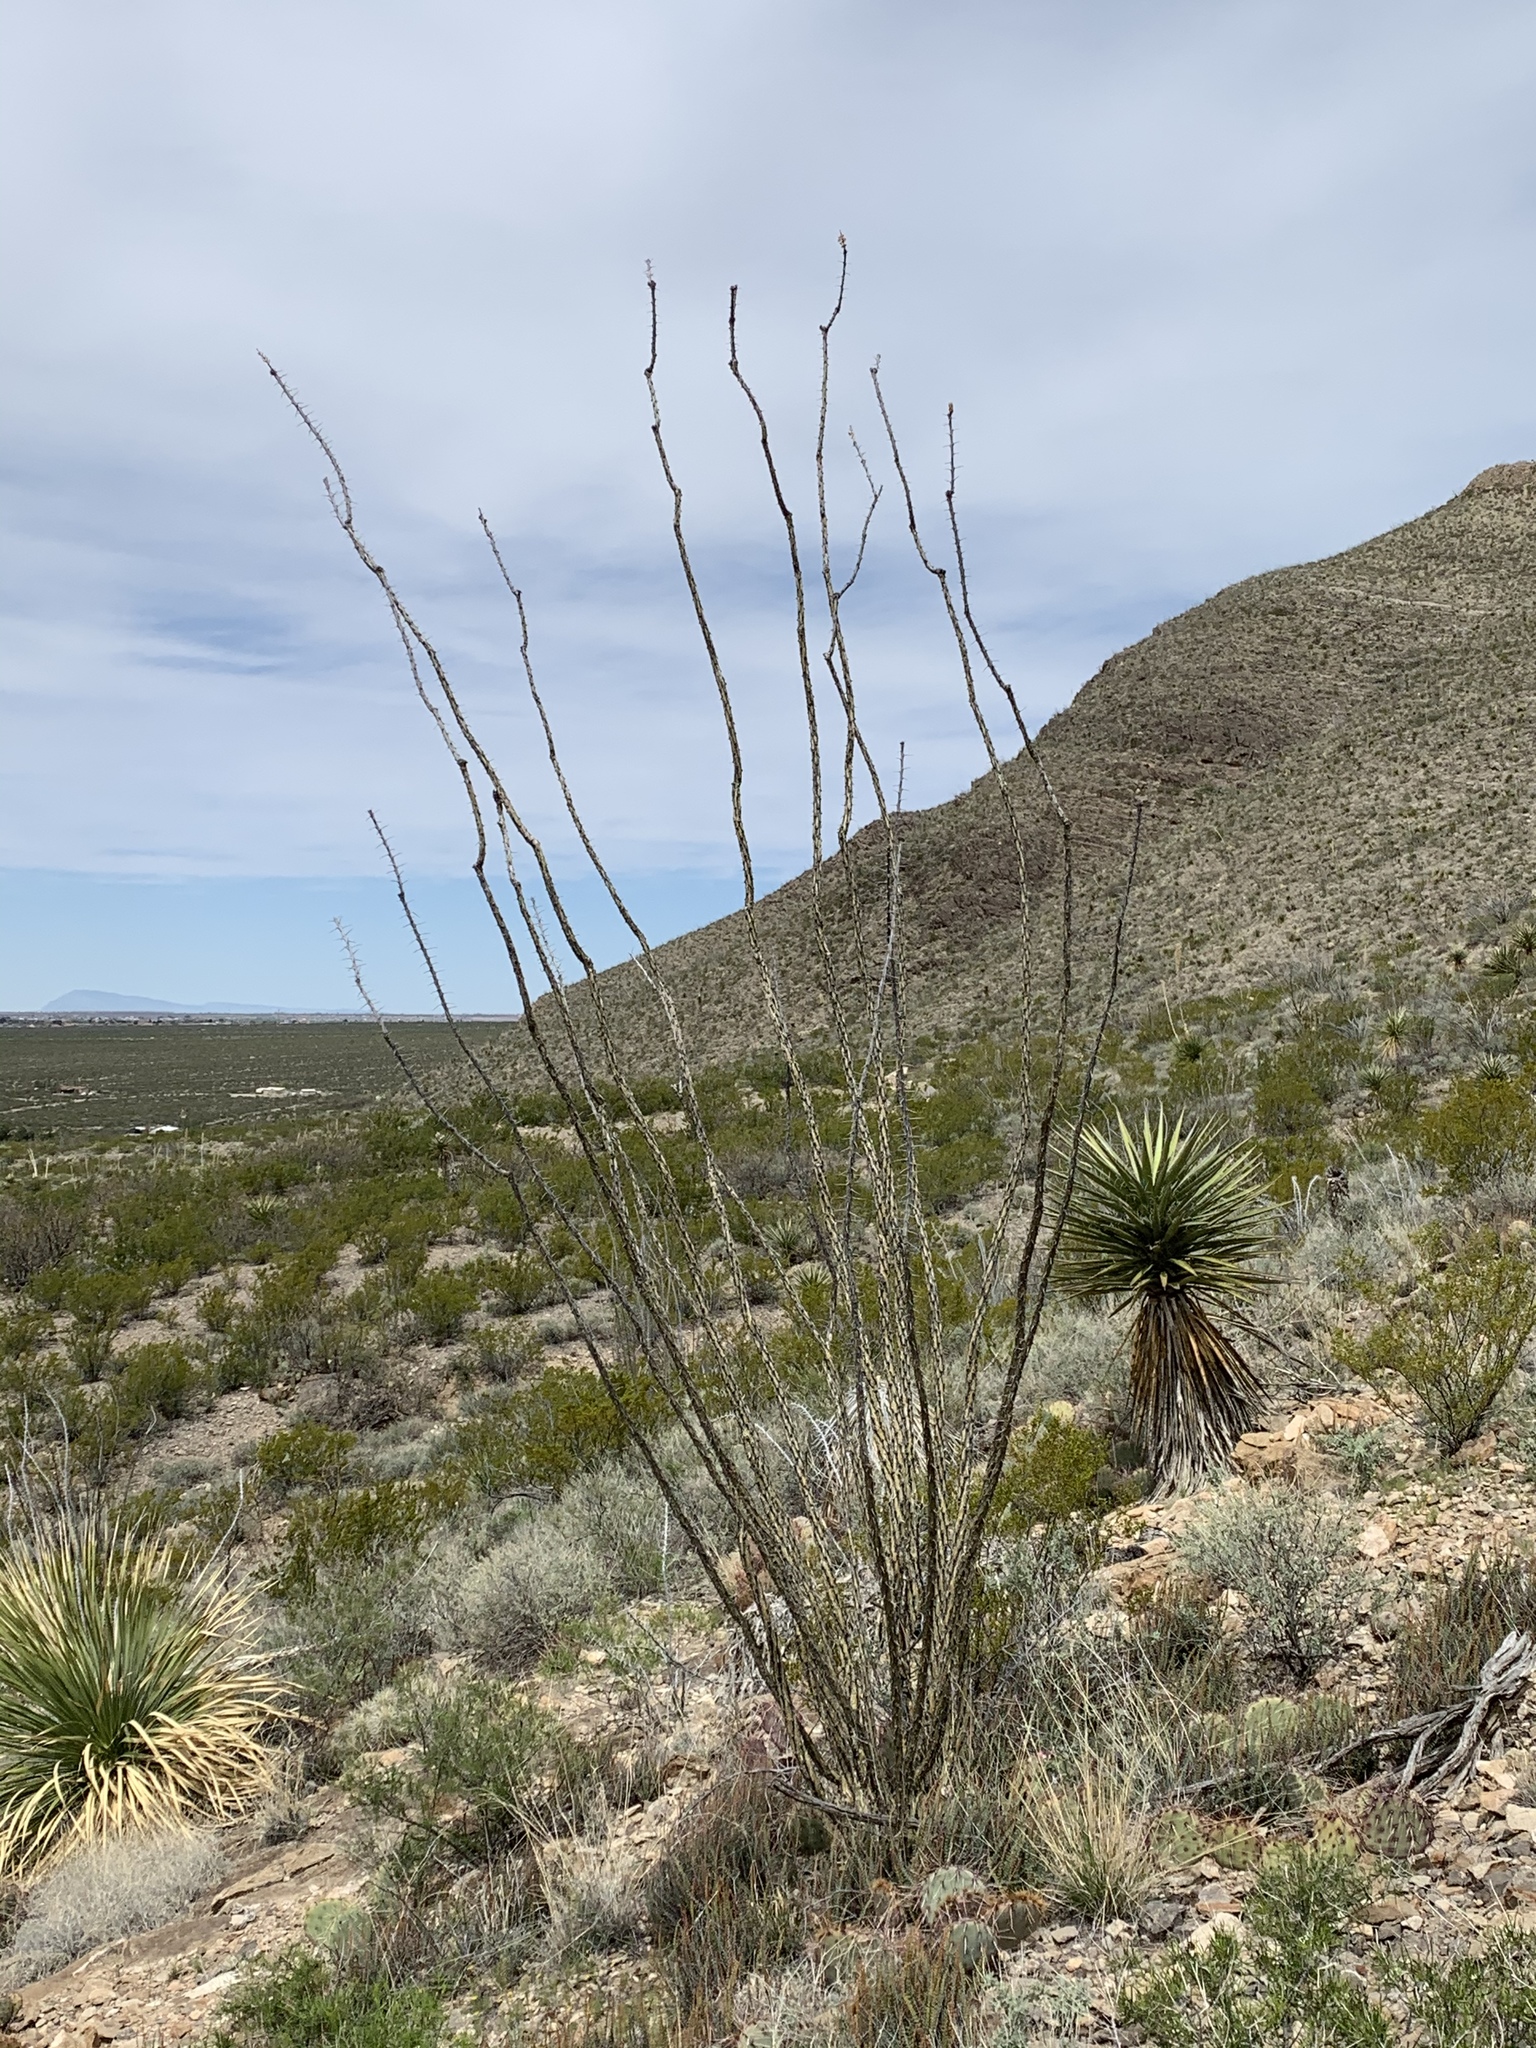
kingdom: Plantae
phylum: Tracheophyta
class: Magnoliopsida
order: Ericales
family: Fouquieriaceae
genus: Fouquieria
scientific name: Fouquieria splendens
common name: Vine-cactus
